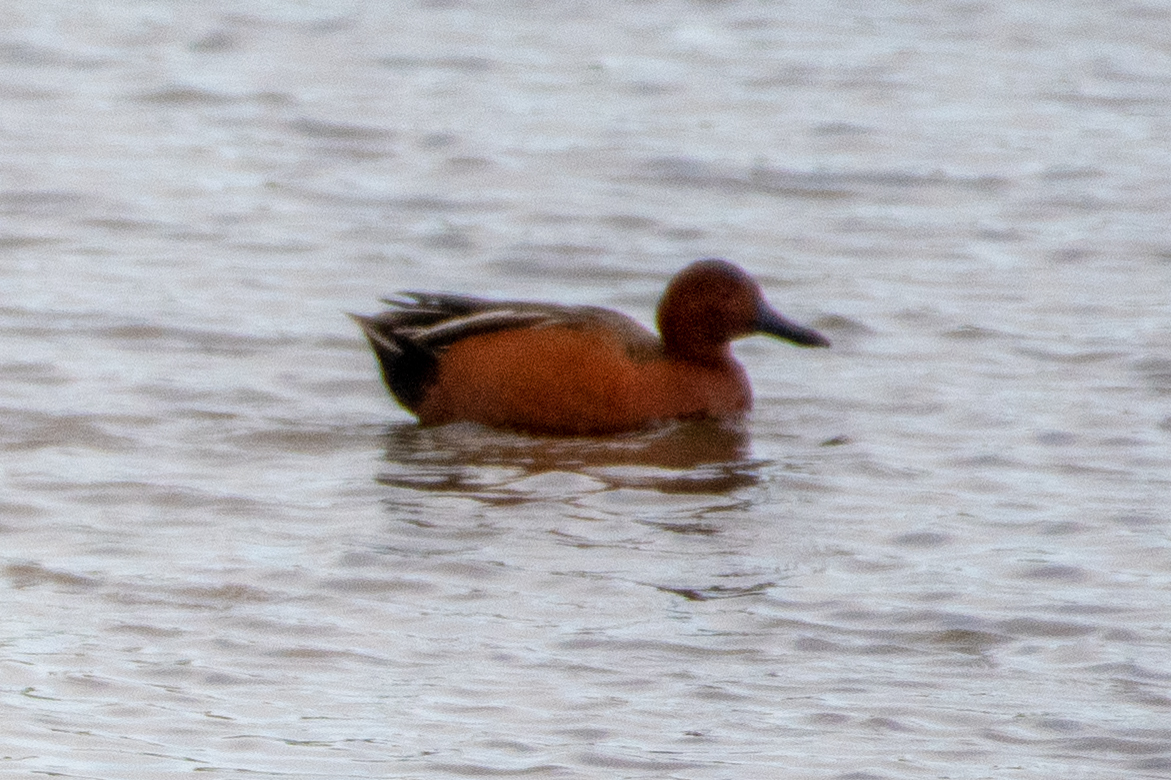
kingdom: Animalia
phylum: Chordata
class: Aves
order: Anseriformes
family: Anatidae
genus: Spatula
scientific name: Spatula cyanoptera
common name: Cinnamon teal
